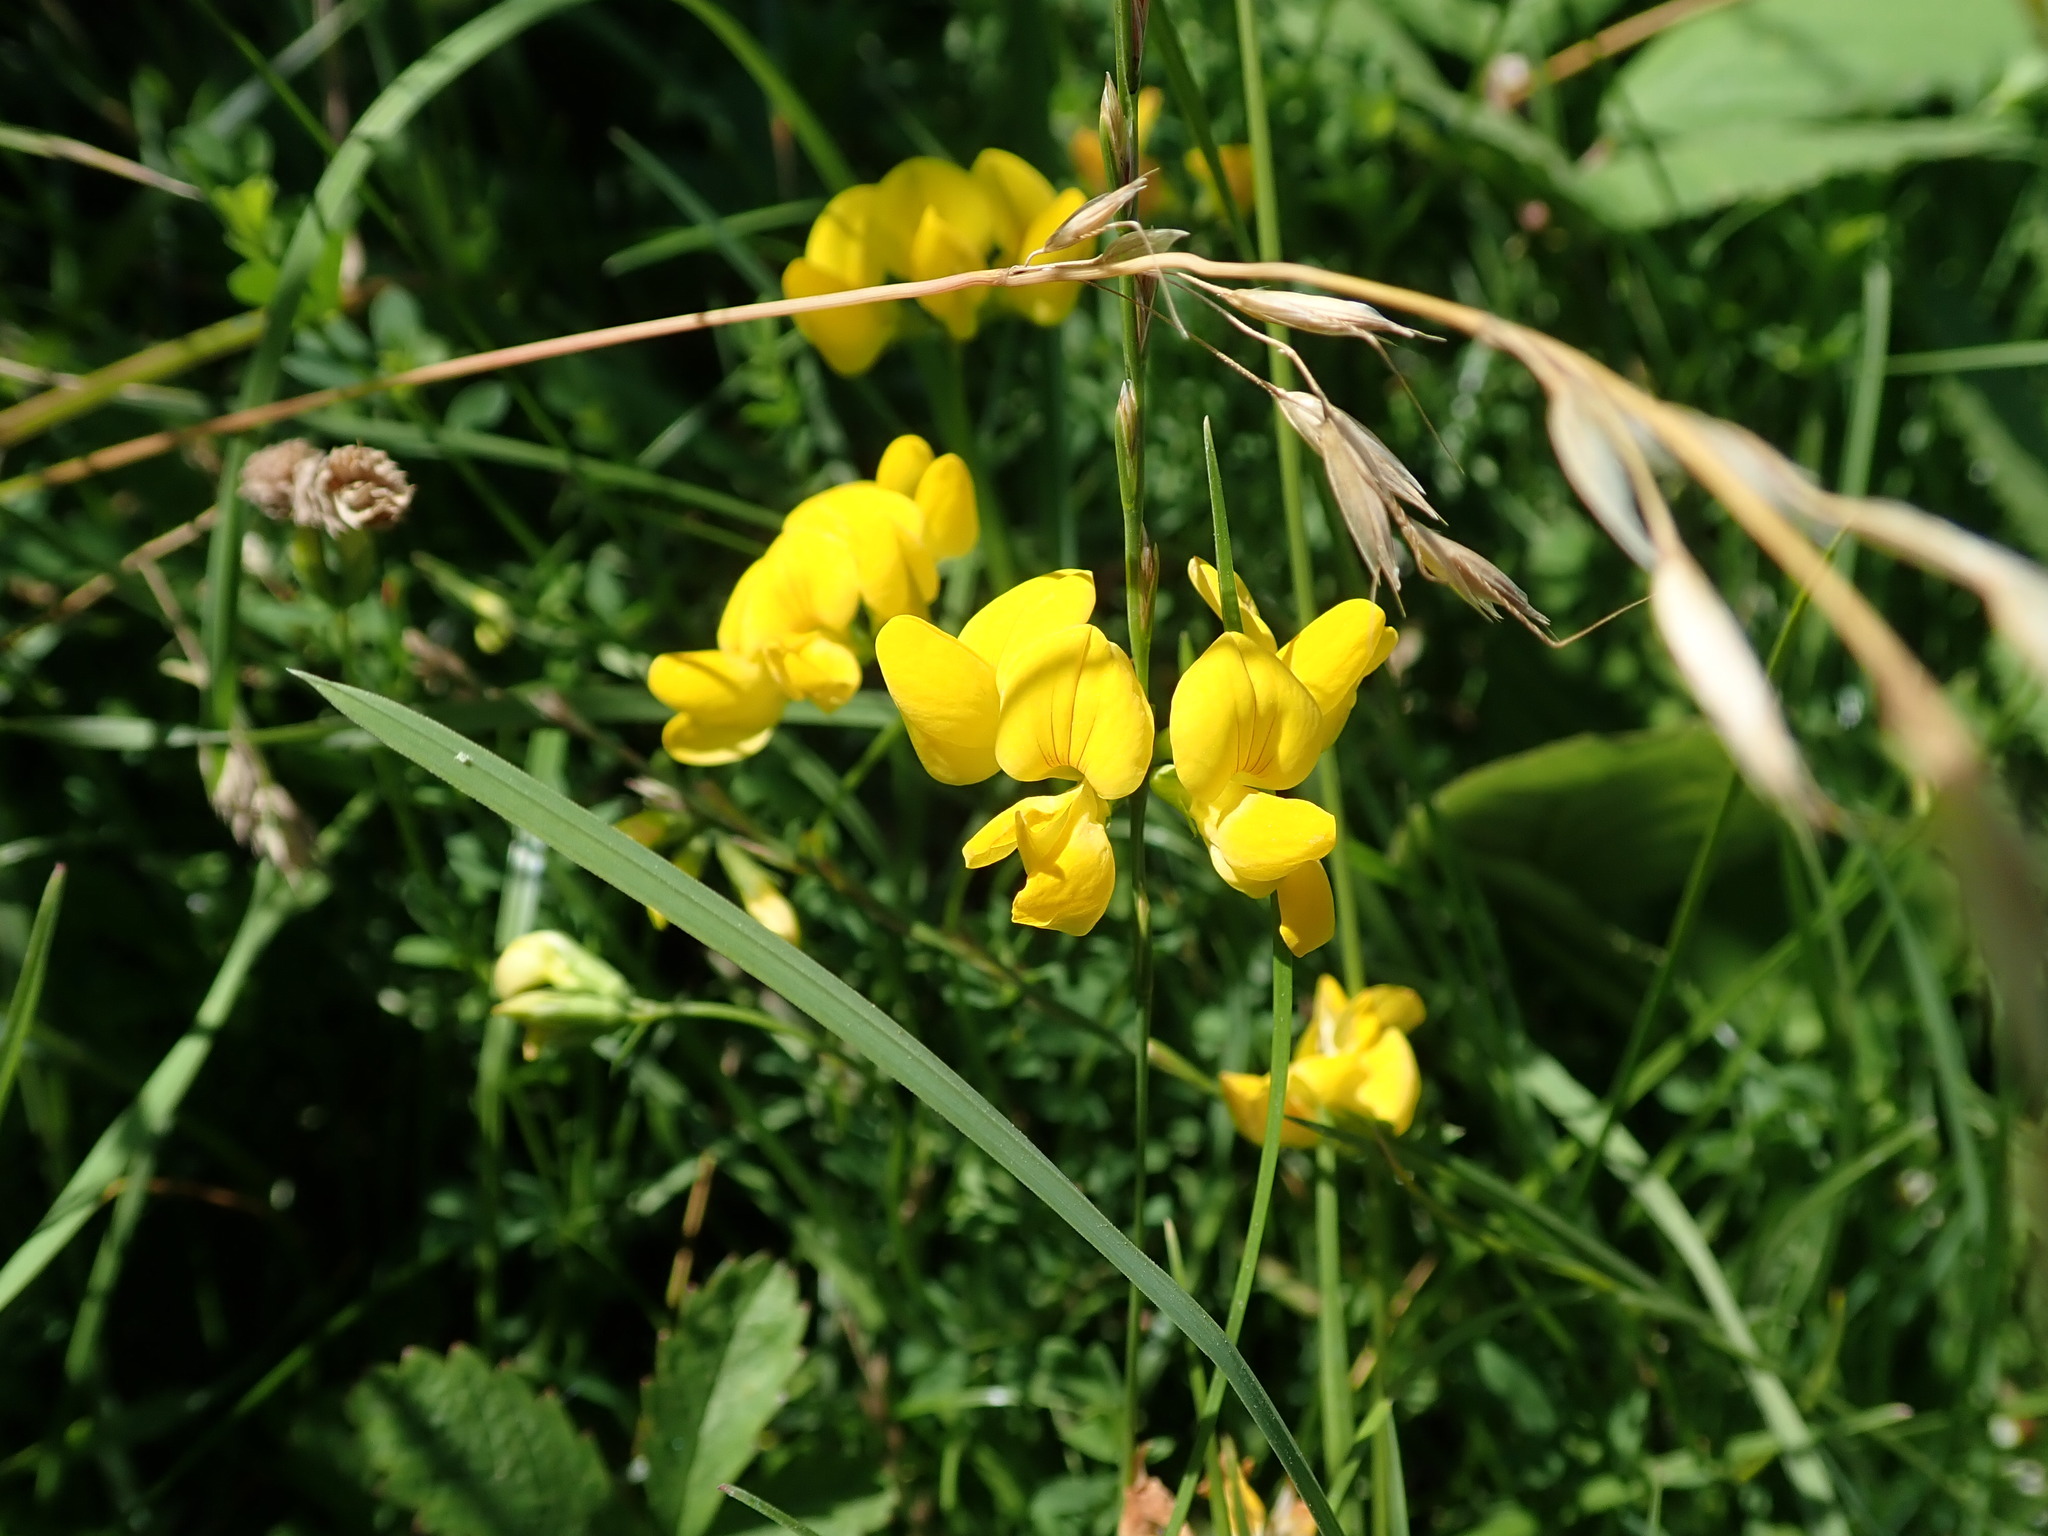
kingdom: Plantae
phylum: Tracheophyta
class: Magnoliopsida
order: Fabales
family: Fabaceae
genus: Lotus
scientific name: Lotus corniculatus
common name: Common bird's-foot-trefoil
